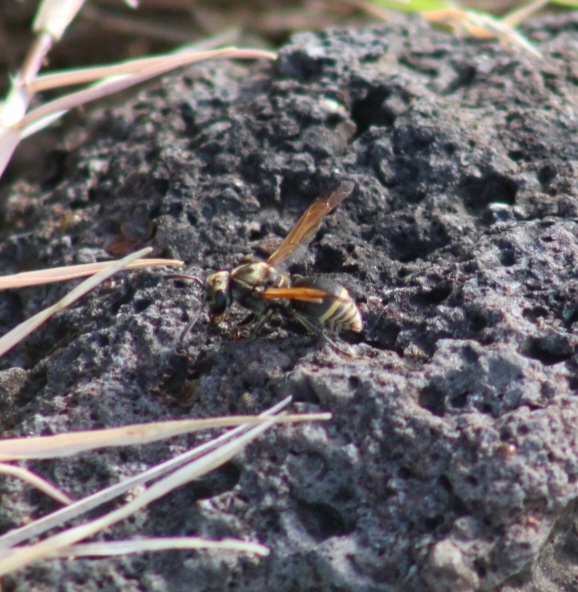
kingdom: Animalia
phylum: Arthropoda
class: Insecta
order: Hymenoptera
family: Eumenidae
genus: Pachodynerus
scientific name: Pachodynerus nasidens
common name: Key hole wasp
